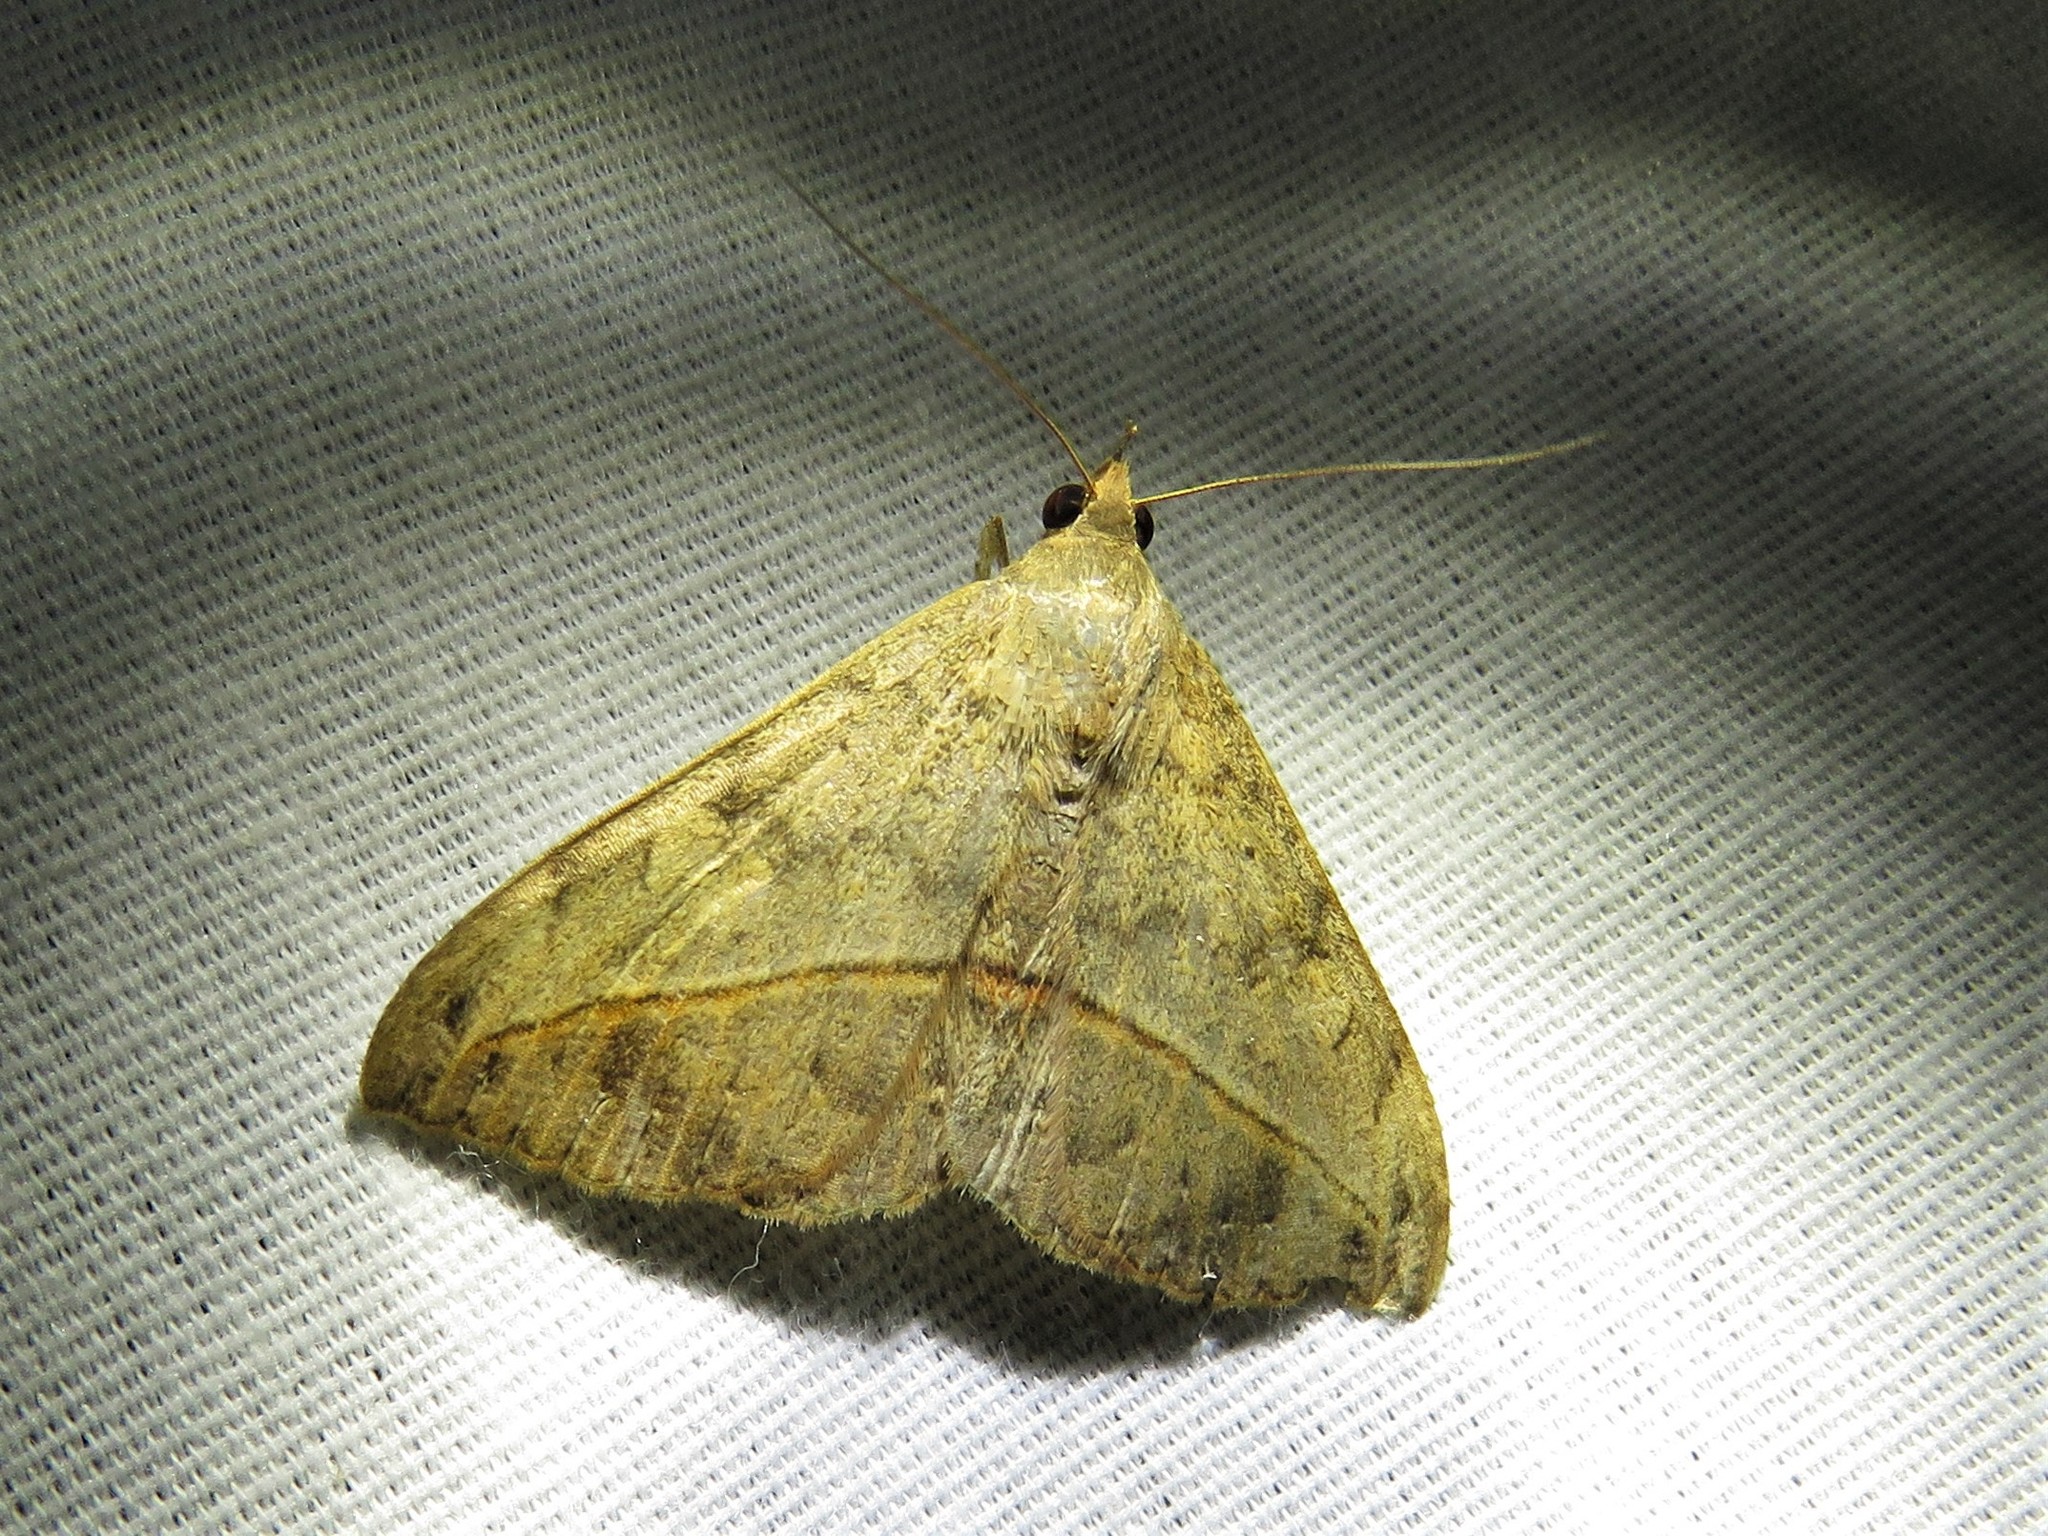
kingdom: Animalia
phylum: Arthropoda
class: Insecta
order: Lepidoptera
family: Erebidae
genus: Anticarsia
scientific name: Anticarsia gemmatalis
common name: Cutworm moth
